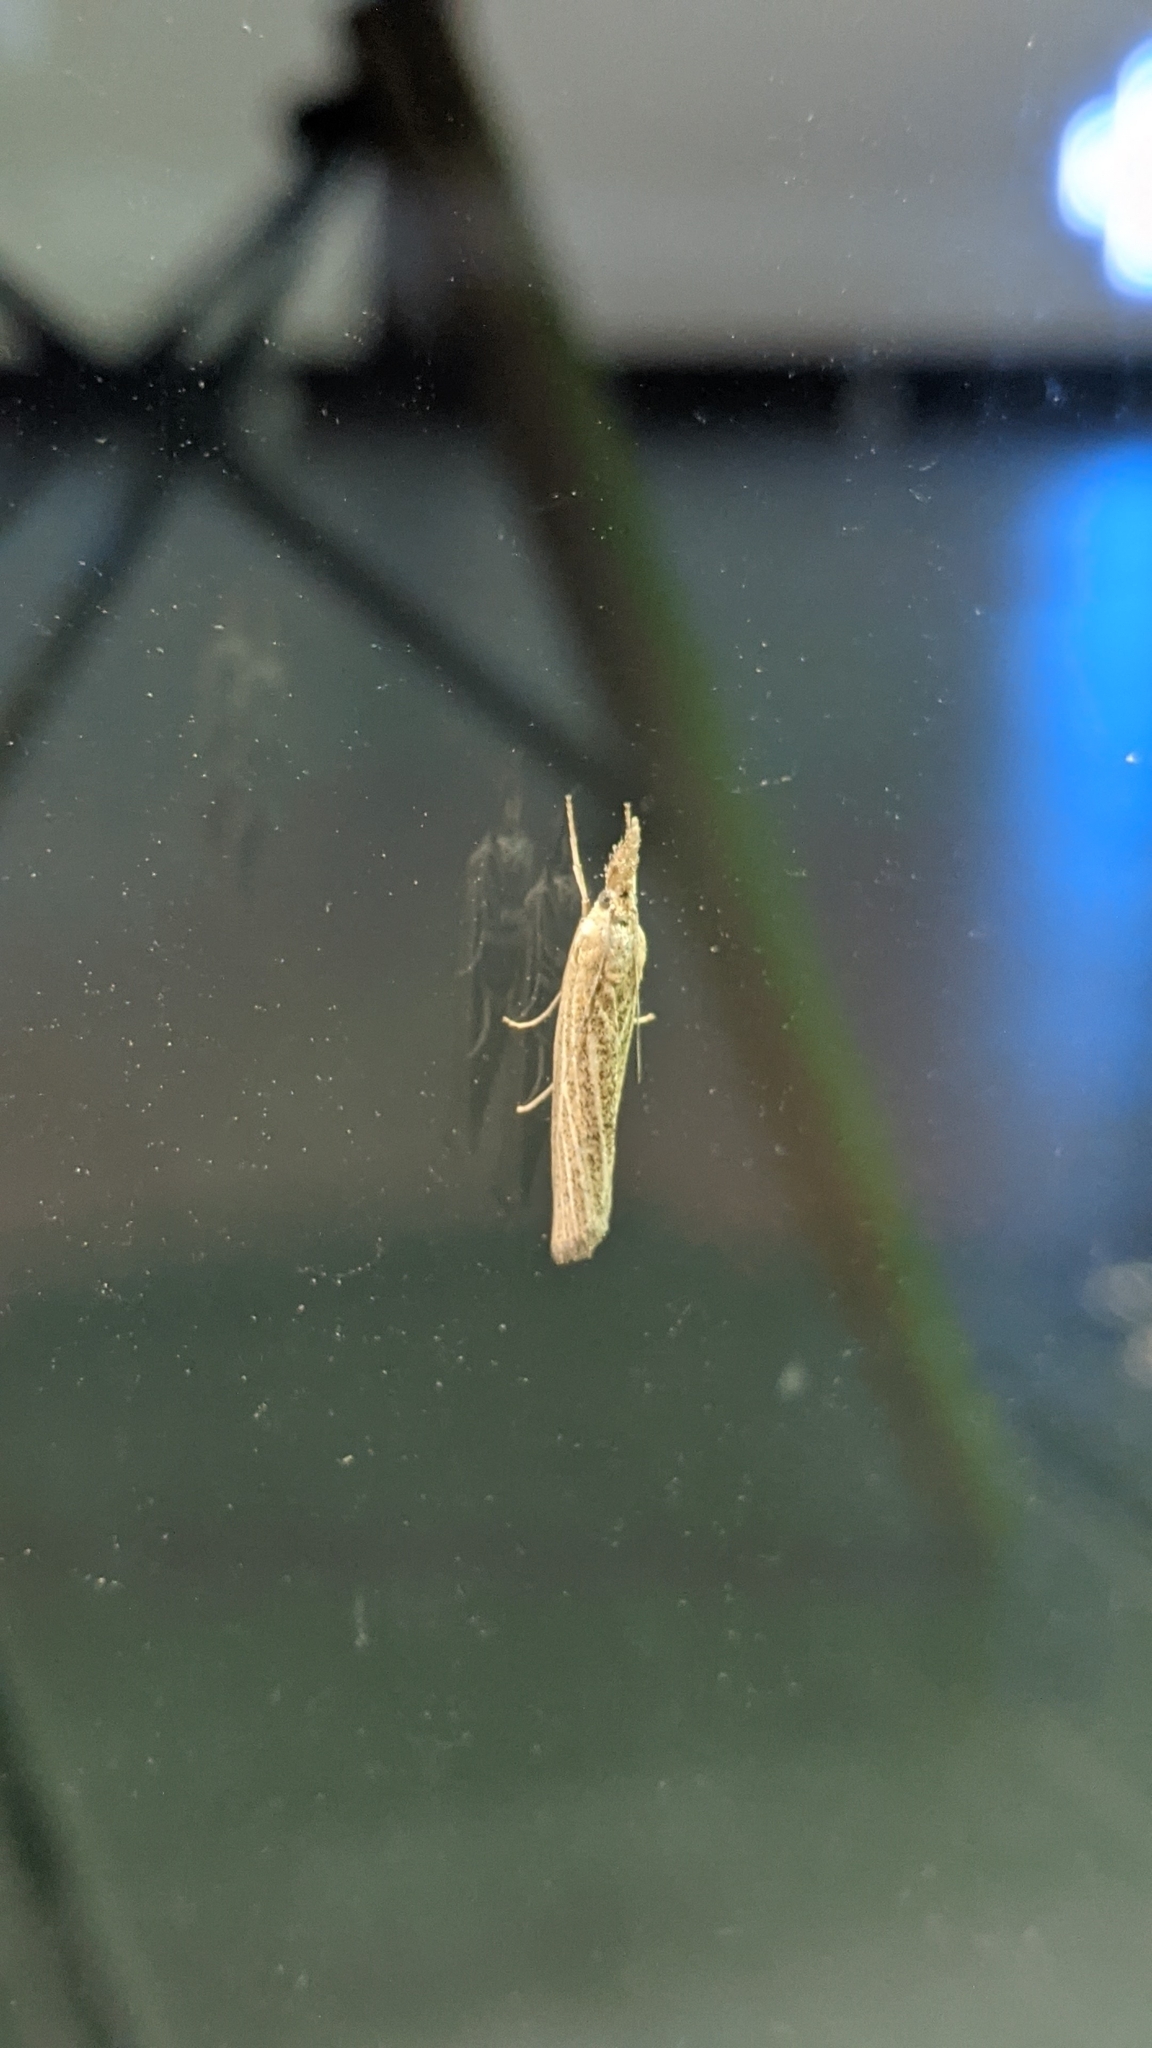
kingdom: Animalia
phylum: Arthropoda
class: Insecta
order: Lepidoptera
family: Crambidae
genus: Pediasia
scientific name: Pediasia luteella
